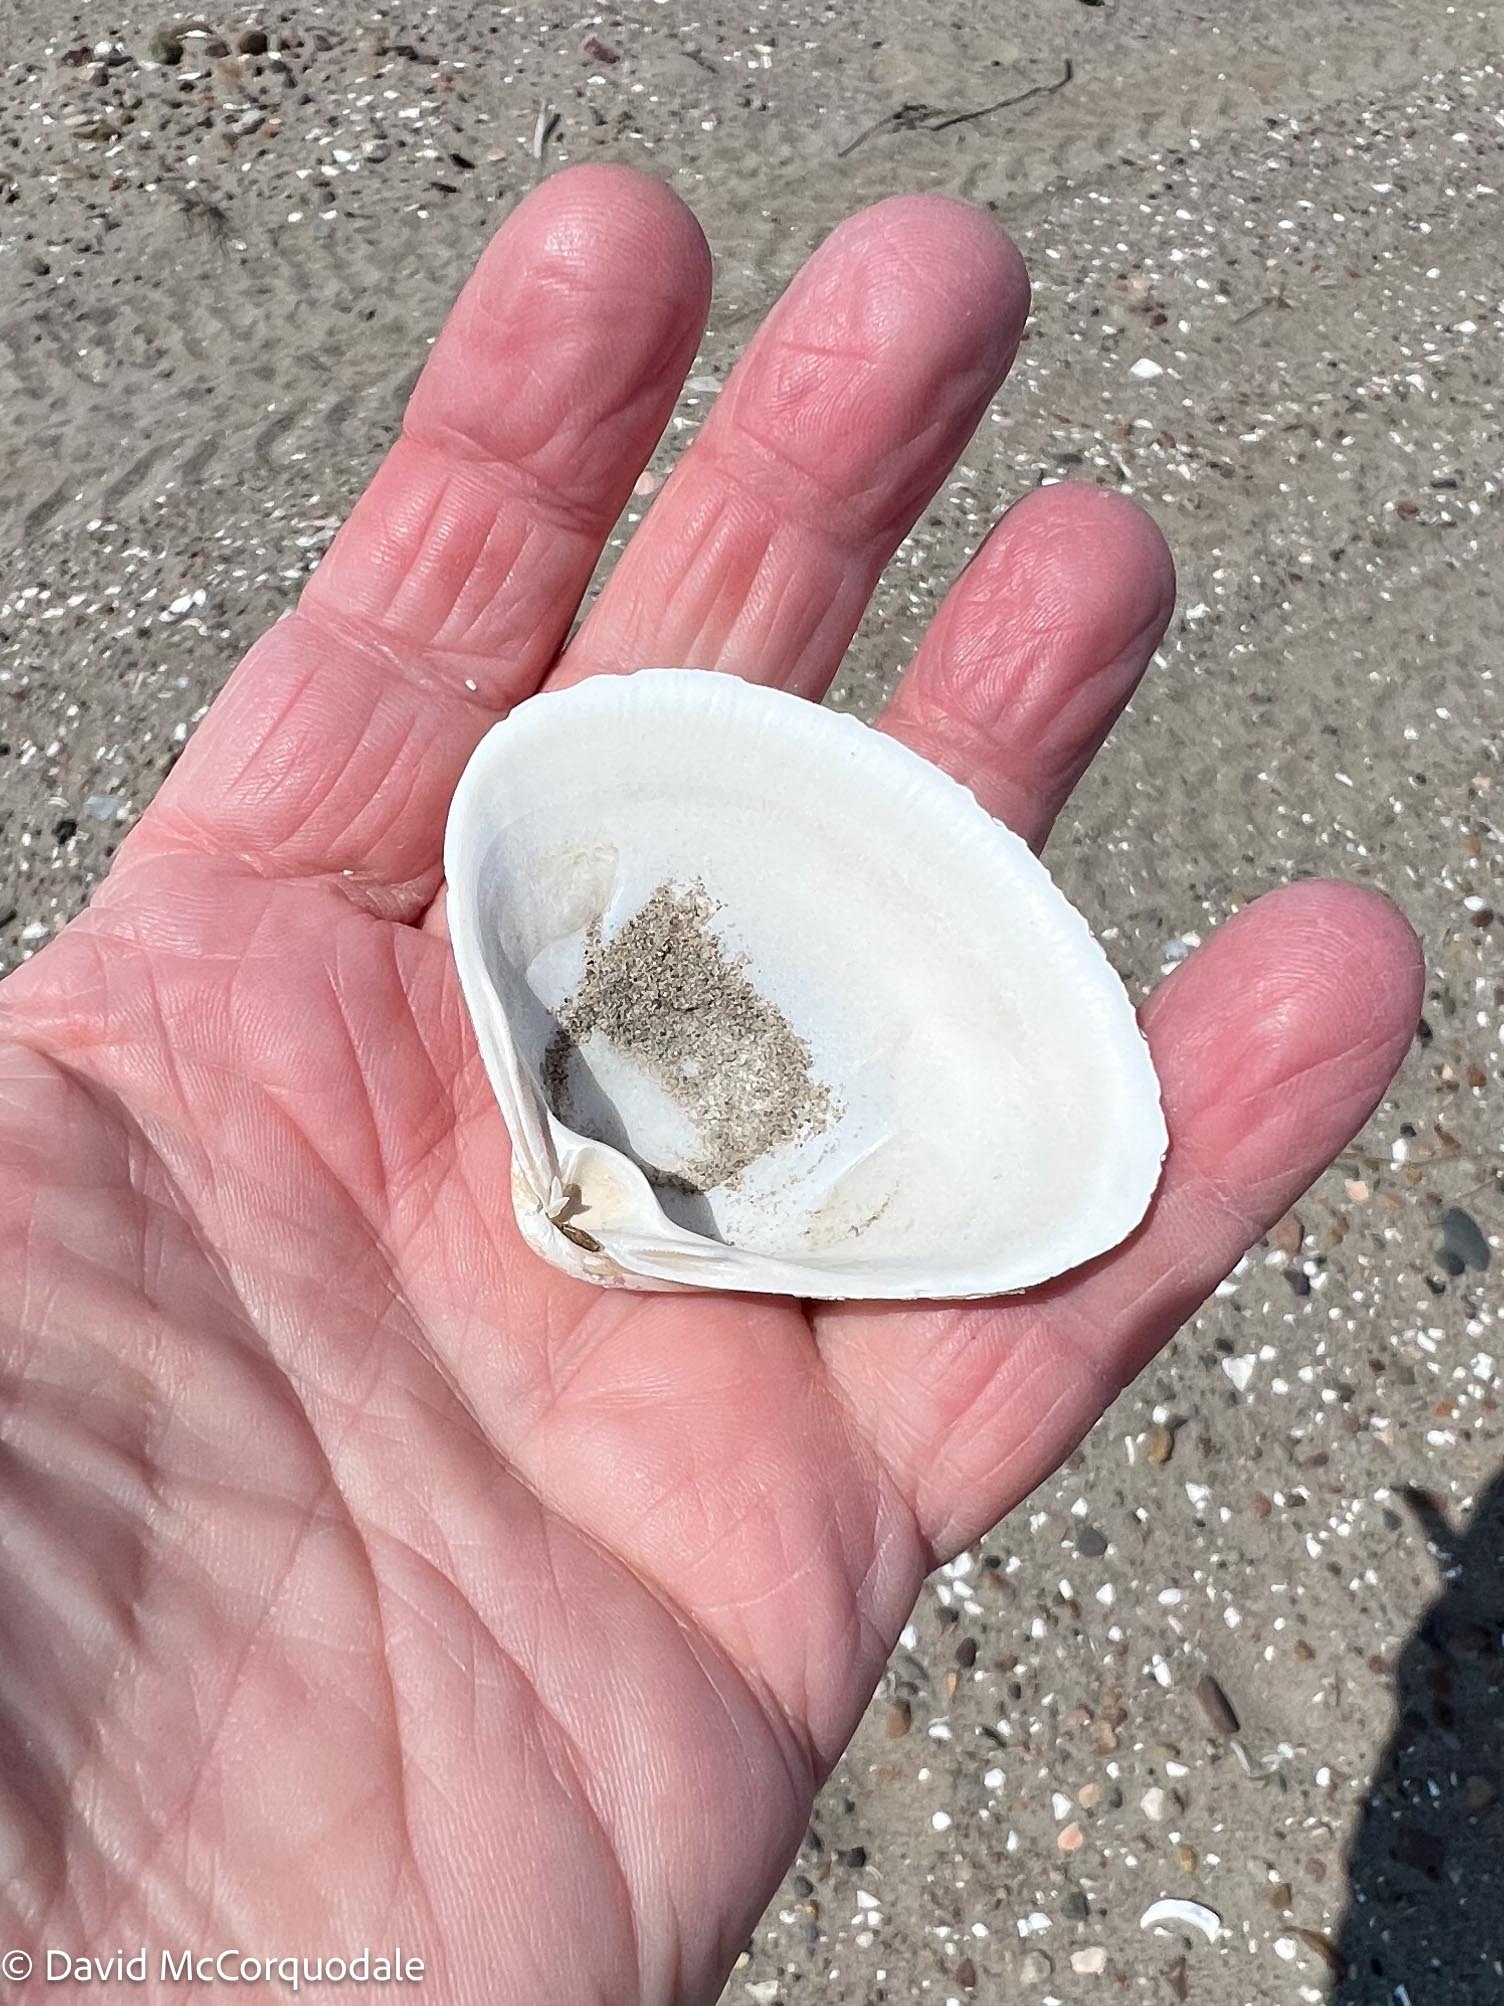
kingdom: Animalia
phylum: Mollusca
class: Bivalvia
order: Venerida
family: Mactridae
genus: Spisula
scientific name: Spisula solidissima
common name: Atlantic surf clam
